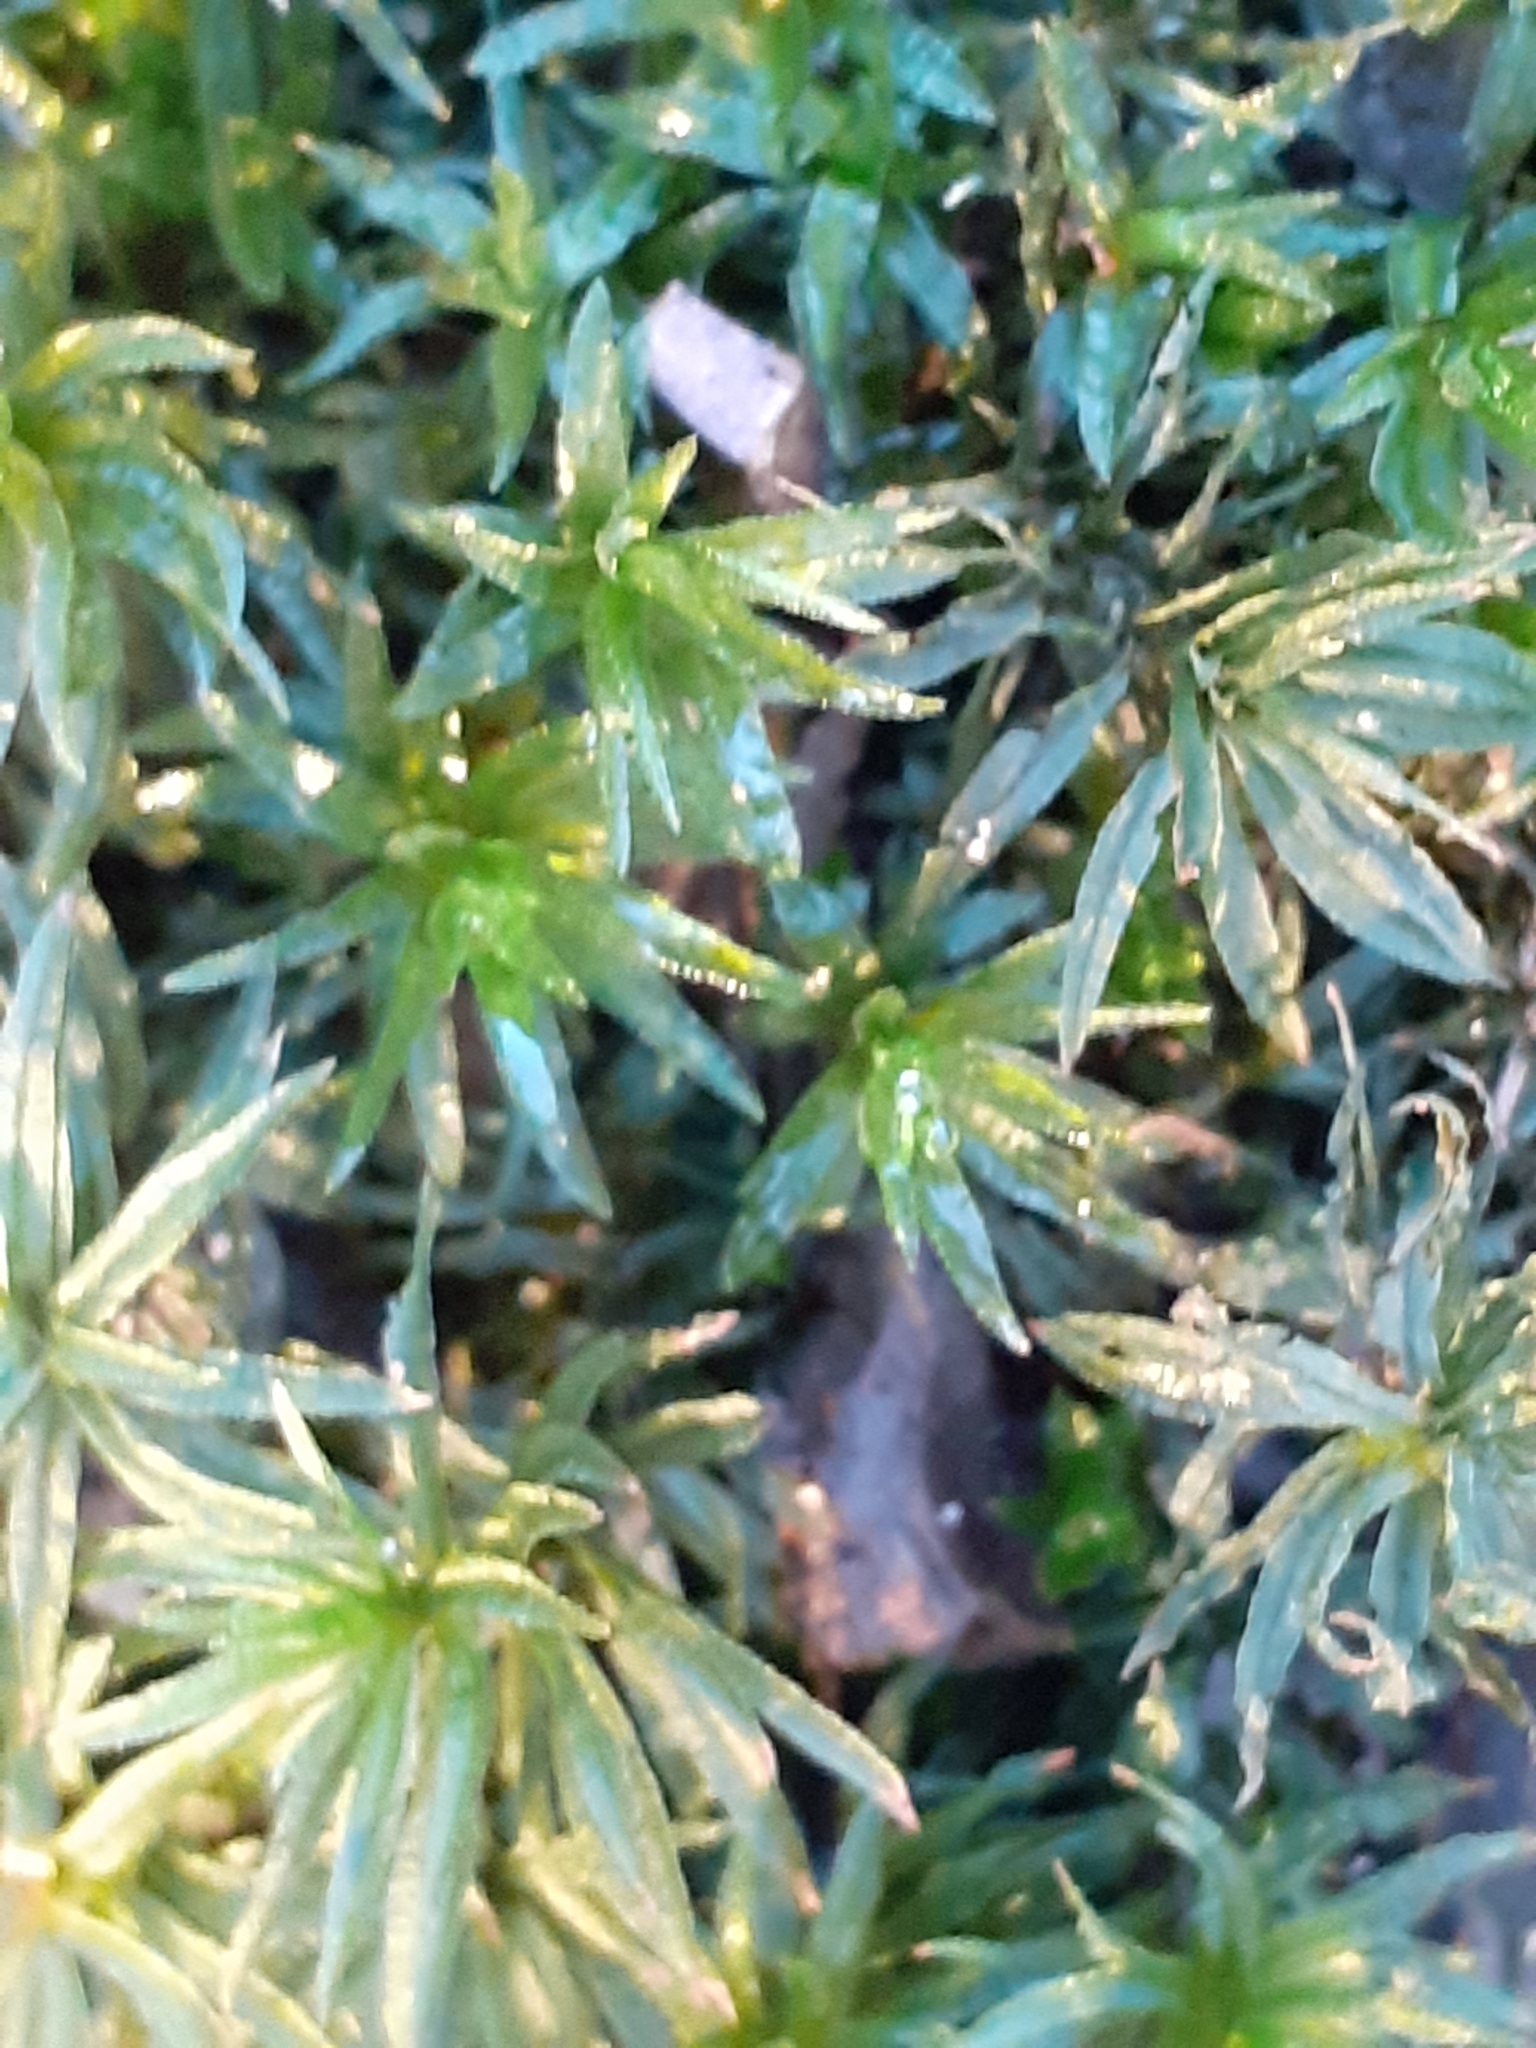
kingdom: Plantae
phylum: Bryophyta
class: Polytrichopsida
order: Polytrichales
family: Polytrichaceae
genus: Atrichum
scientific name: Atrichum undulatum
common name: Common smoothcap
